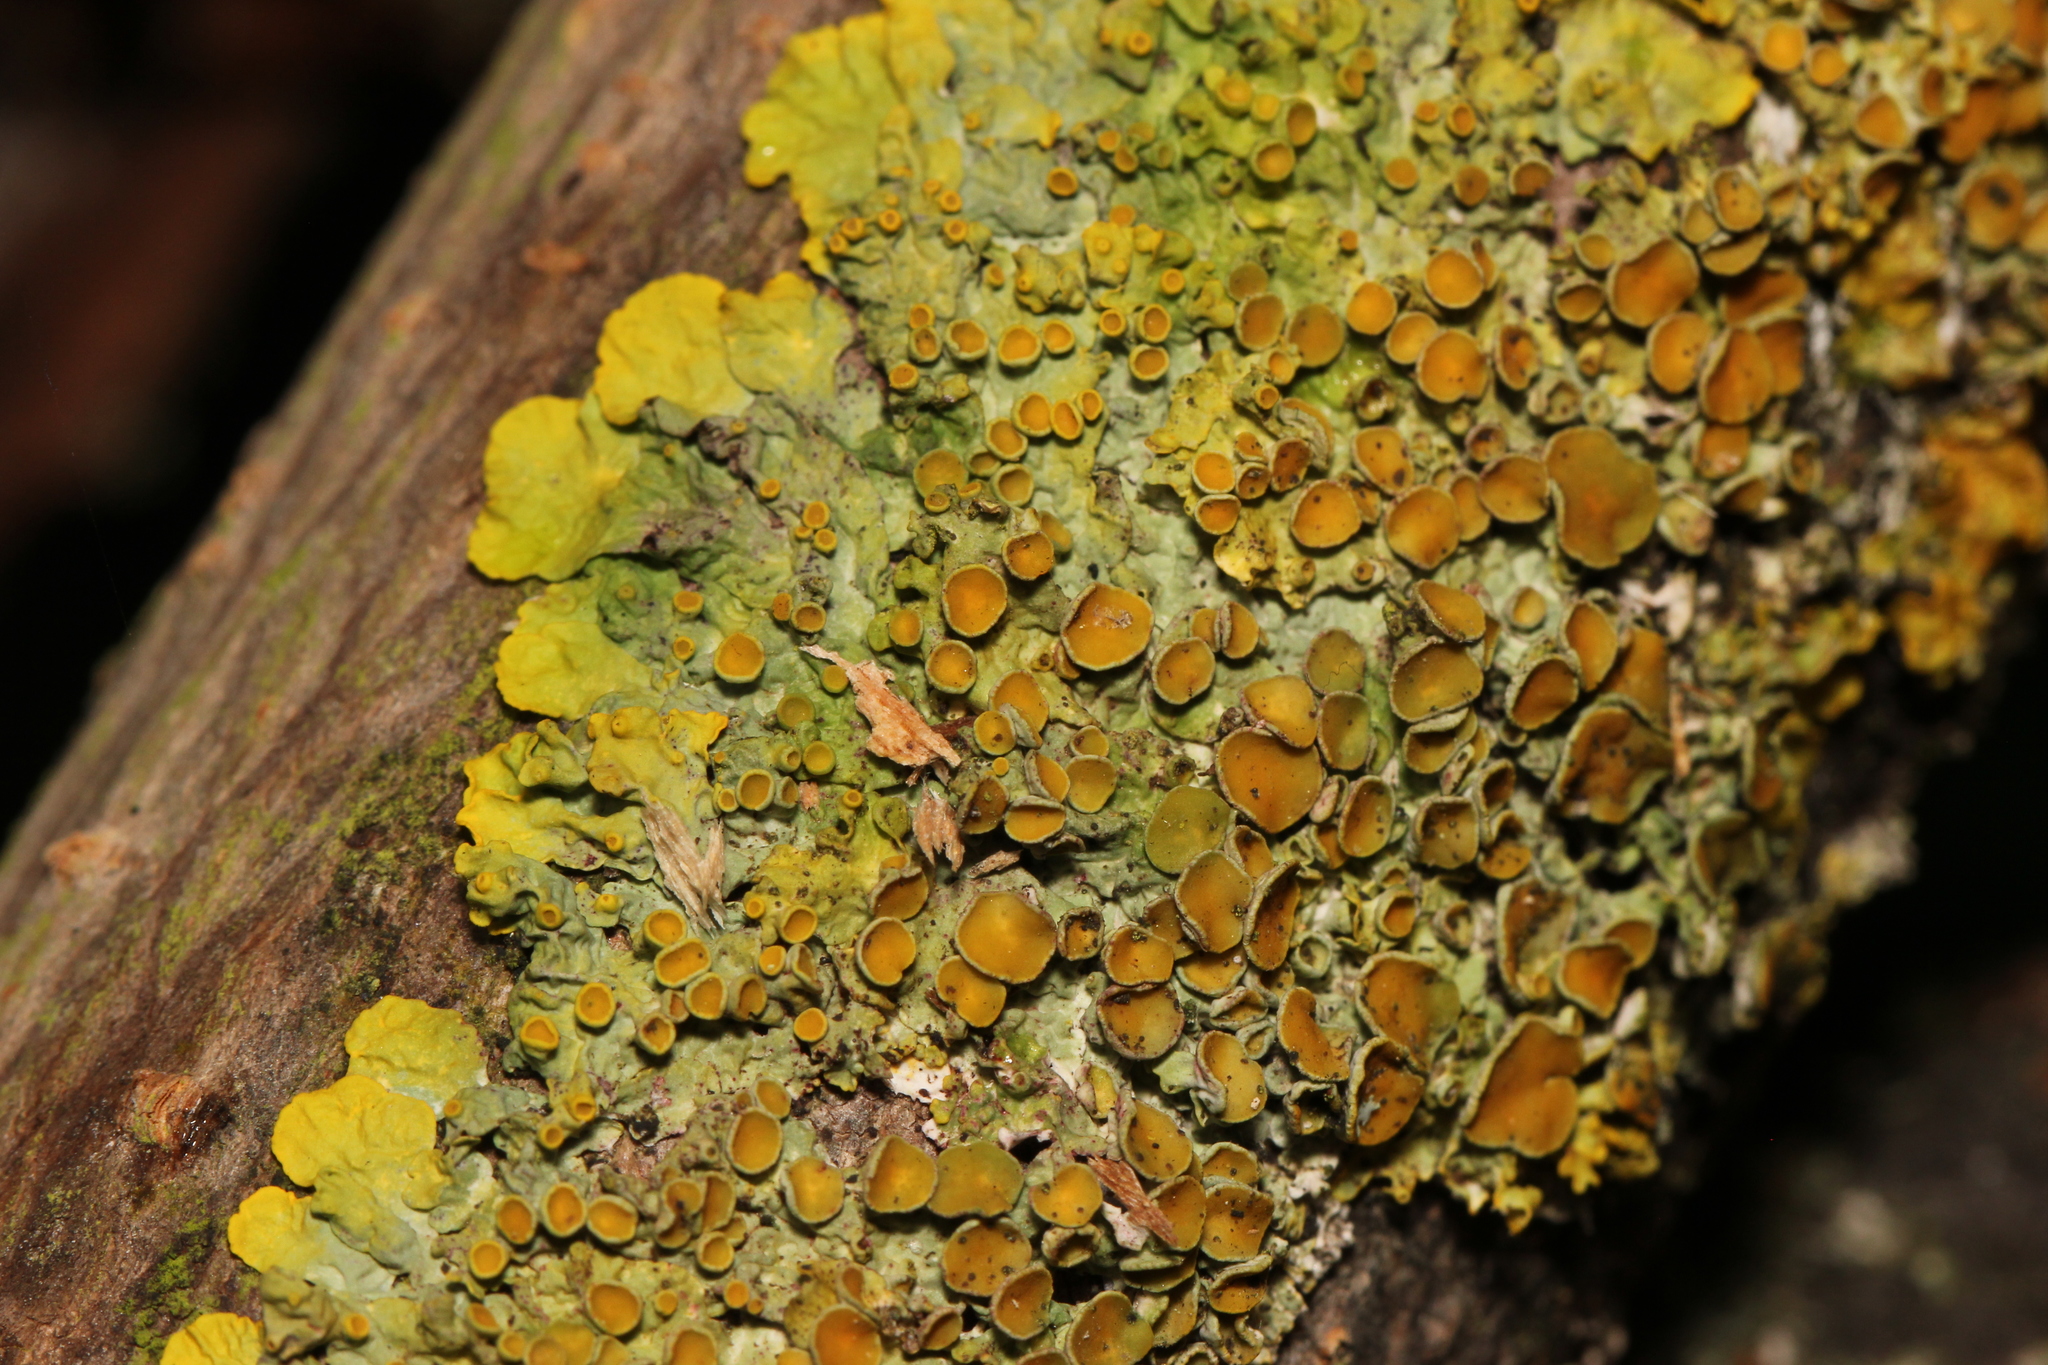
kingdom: Fungi
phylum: Ascomycota
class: Lecanoromycetes
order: Teloschistales
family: Teloschistaceae
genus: Xanthoria
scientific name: Xanthoria parietina
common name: Common orange lichen
